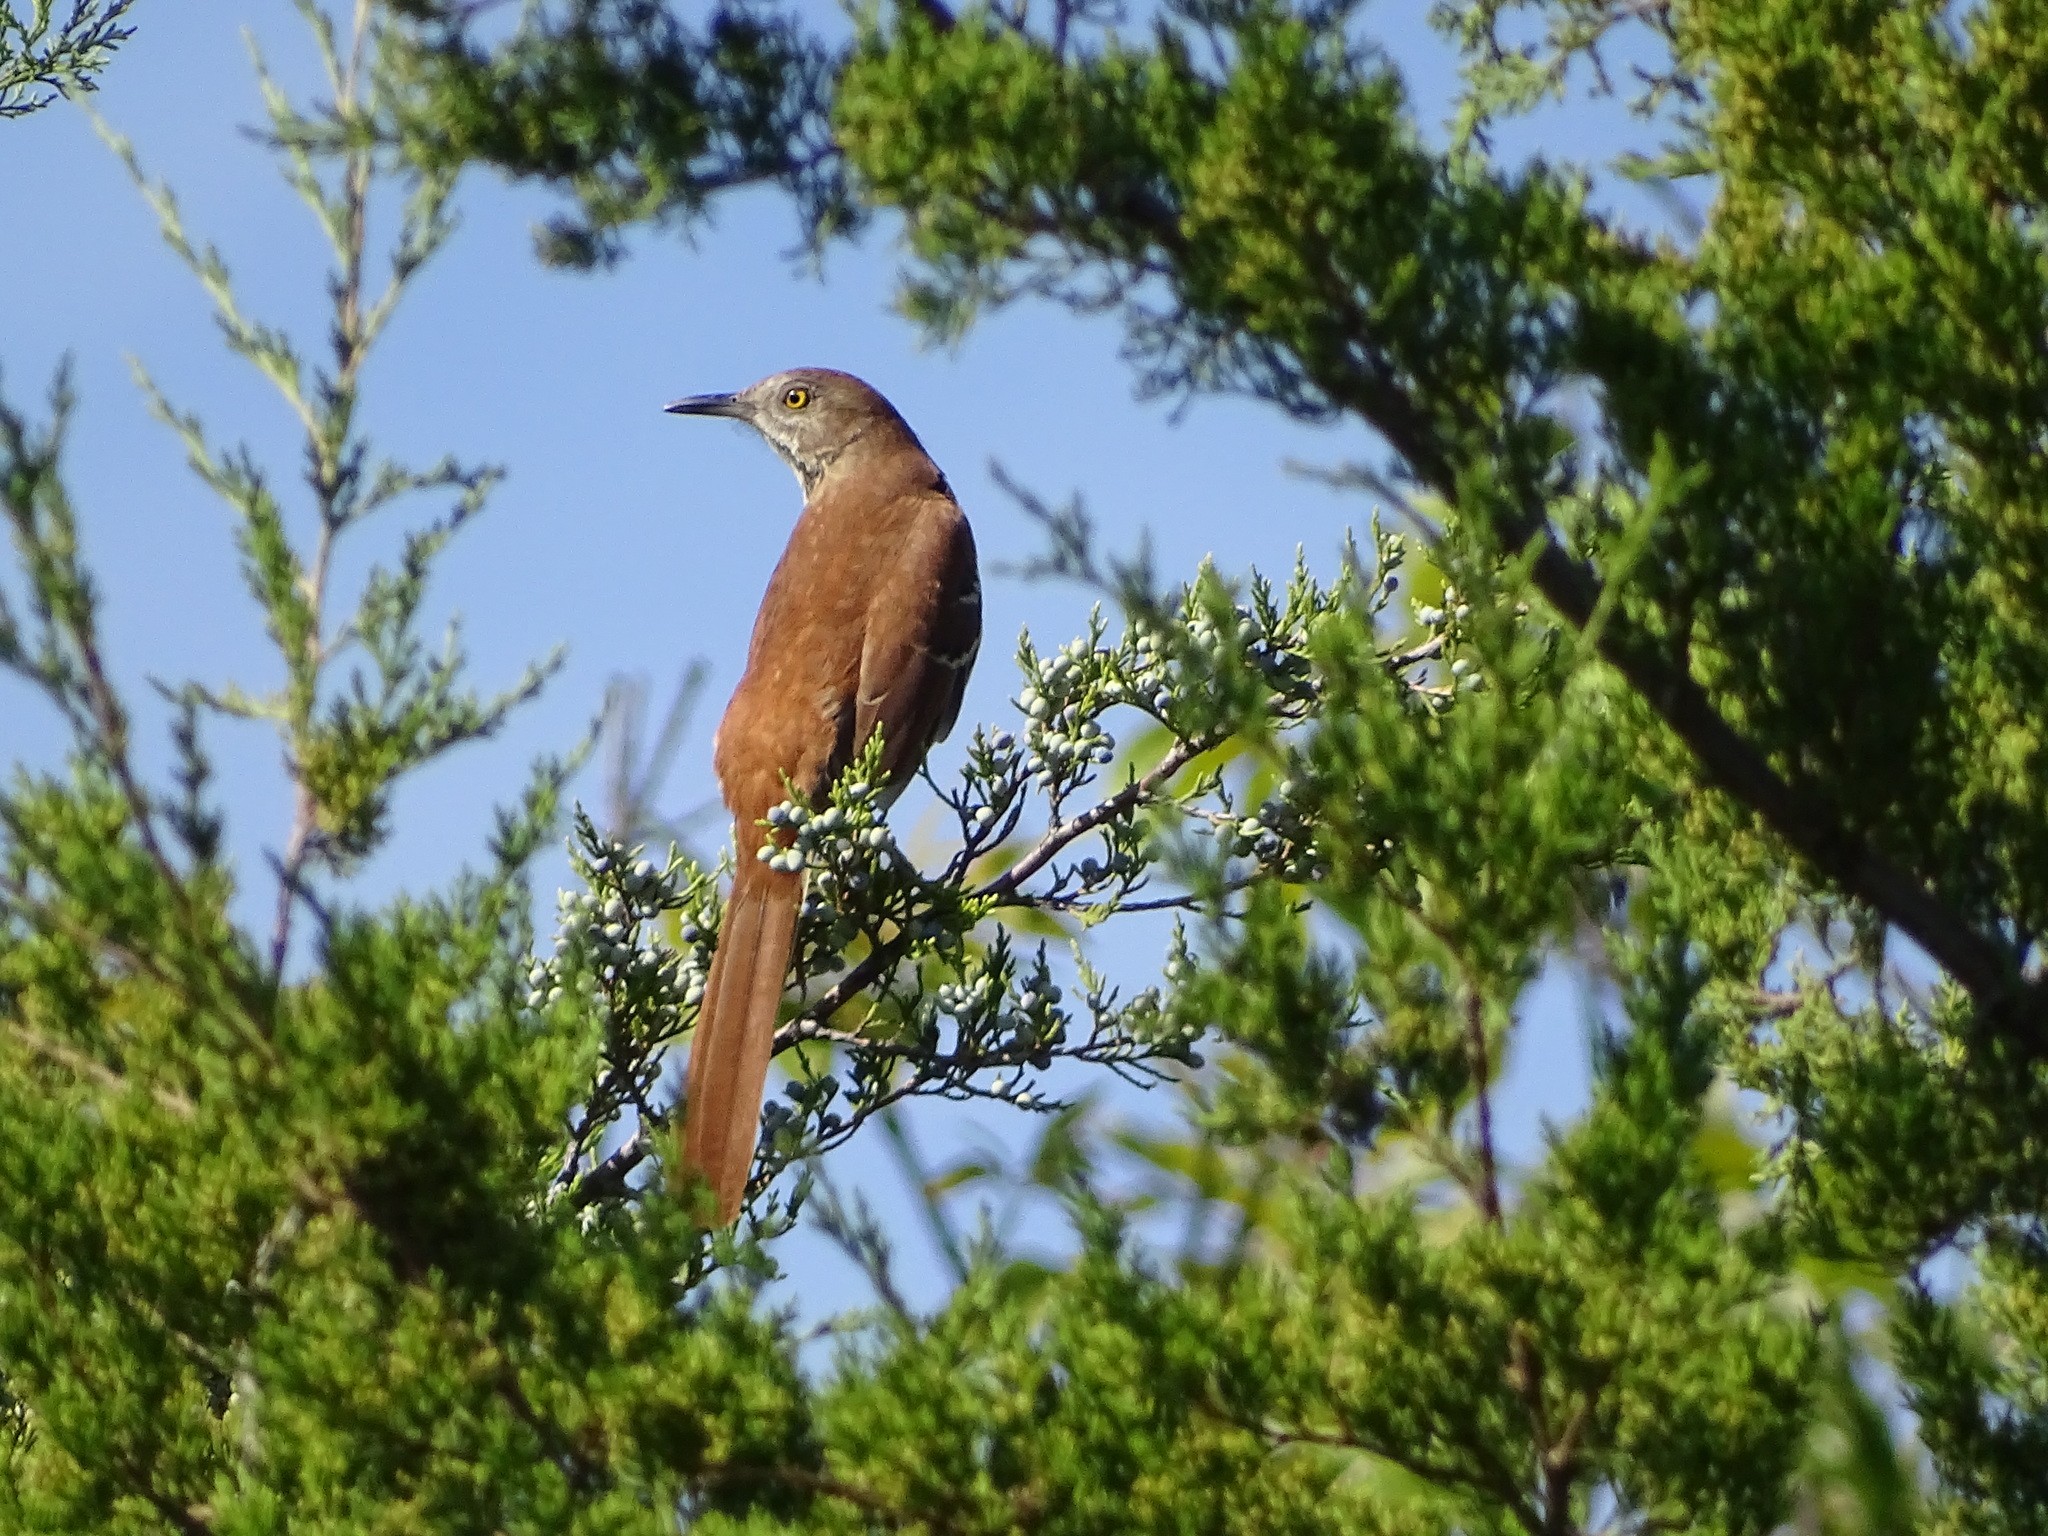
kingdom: Animalia
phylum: Chordata
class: Aves
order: Passeriformes
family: Mimidae
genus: Toxostoma
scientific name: Toxostoma rufum
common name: Brown thrasher
